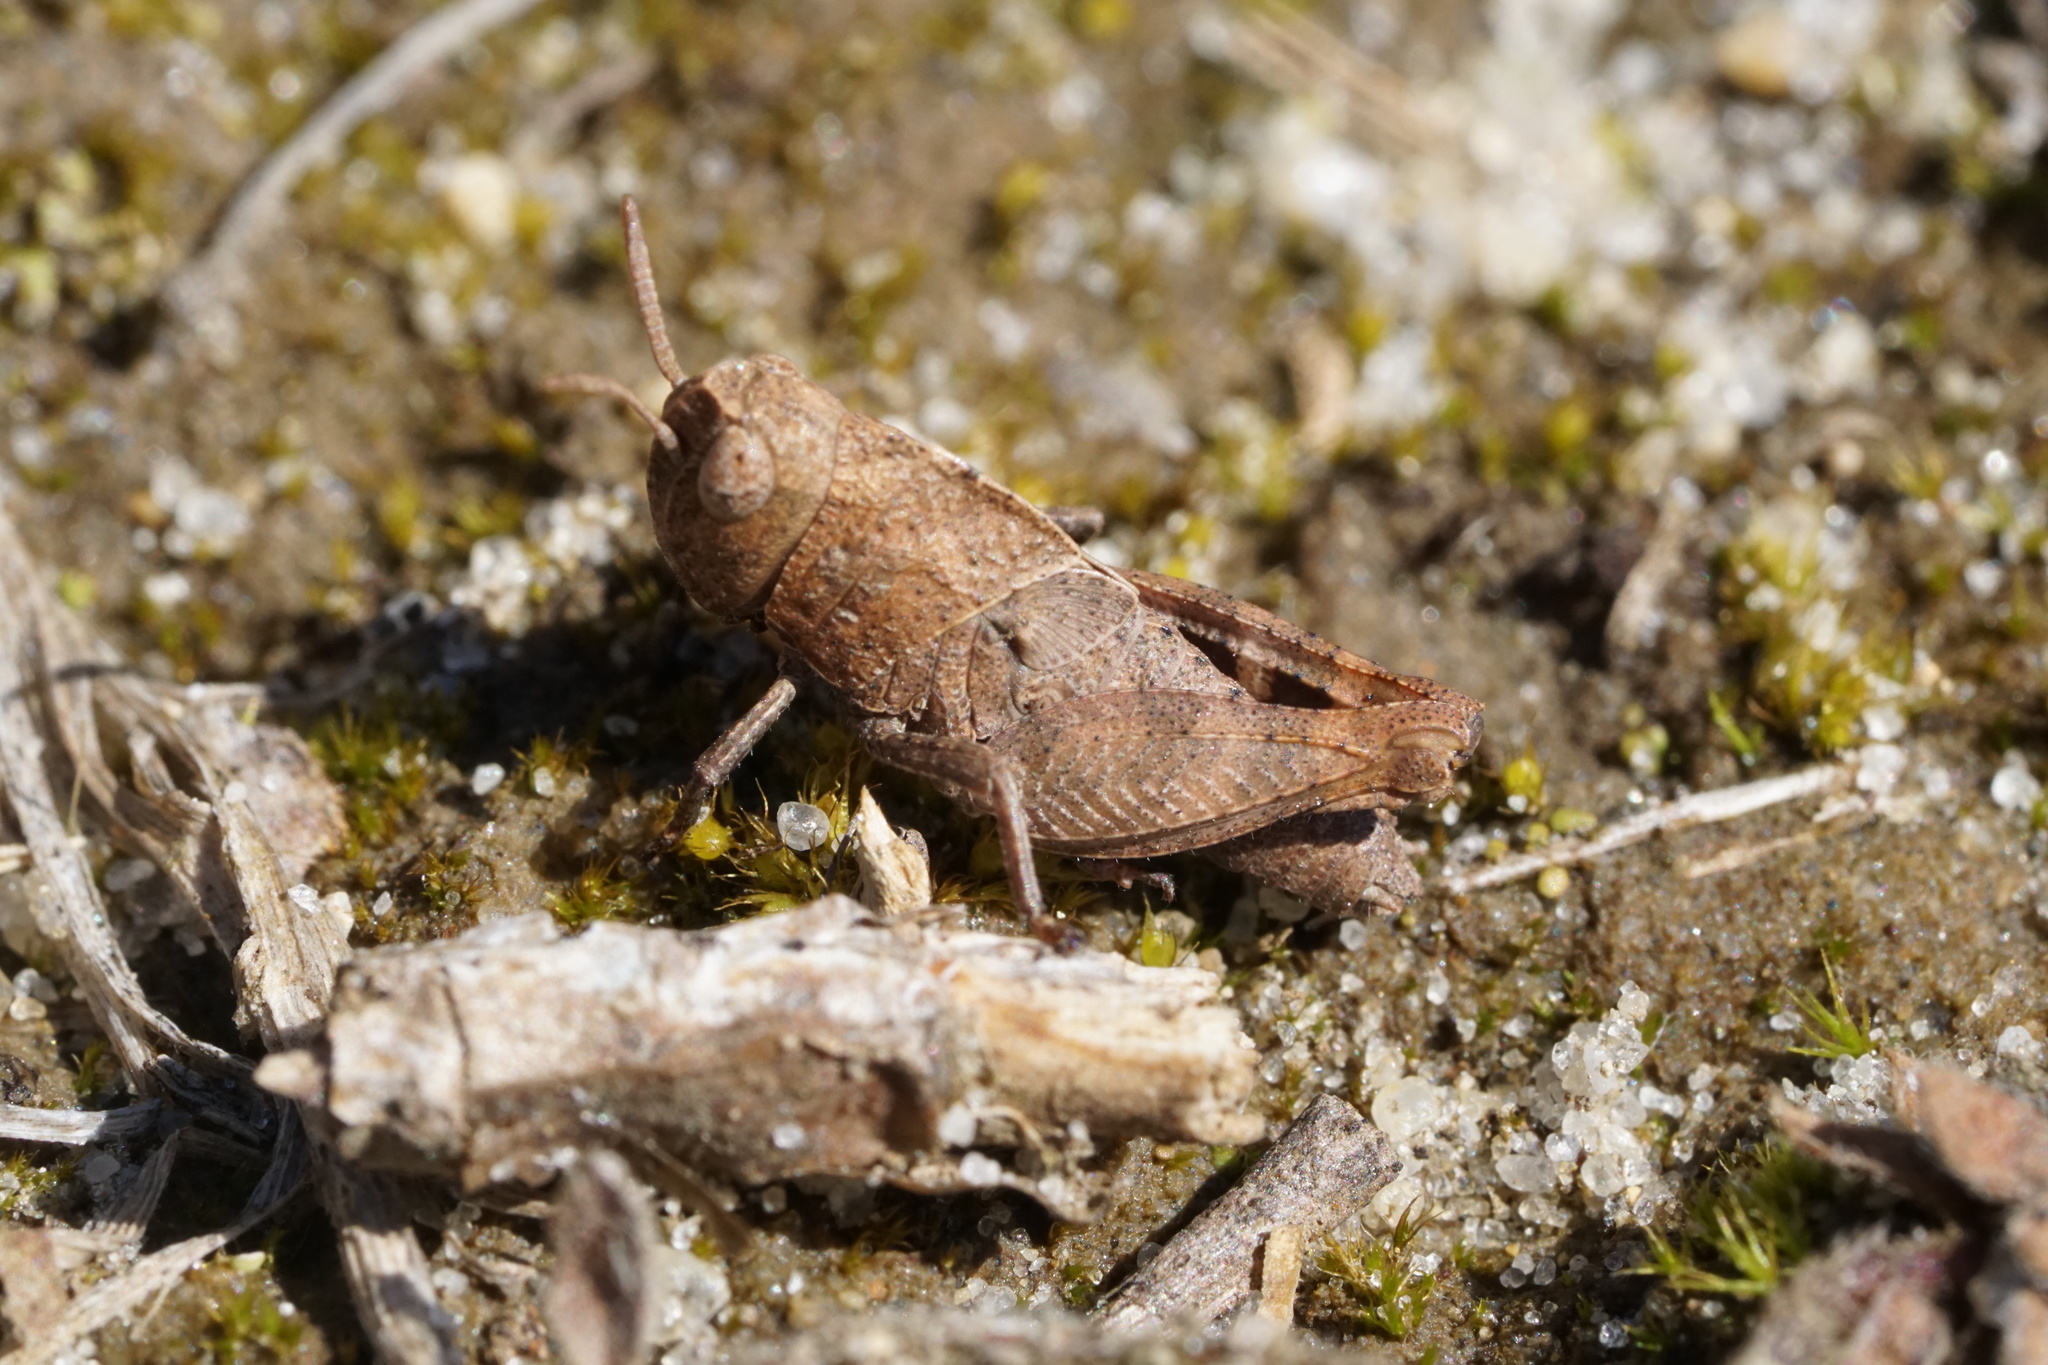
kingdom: Animalia
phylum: Arthropoda
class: Insecta
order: Orthoptera
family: Acrididae
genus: Arphia
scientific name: Arphia sulphurea
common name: Spring yellow-winged locust
